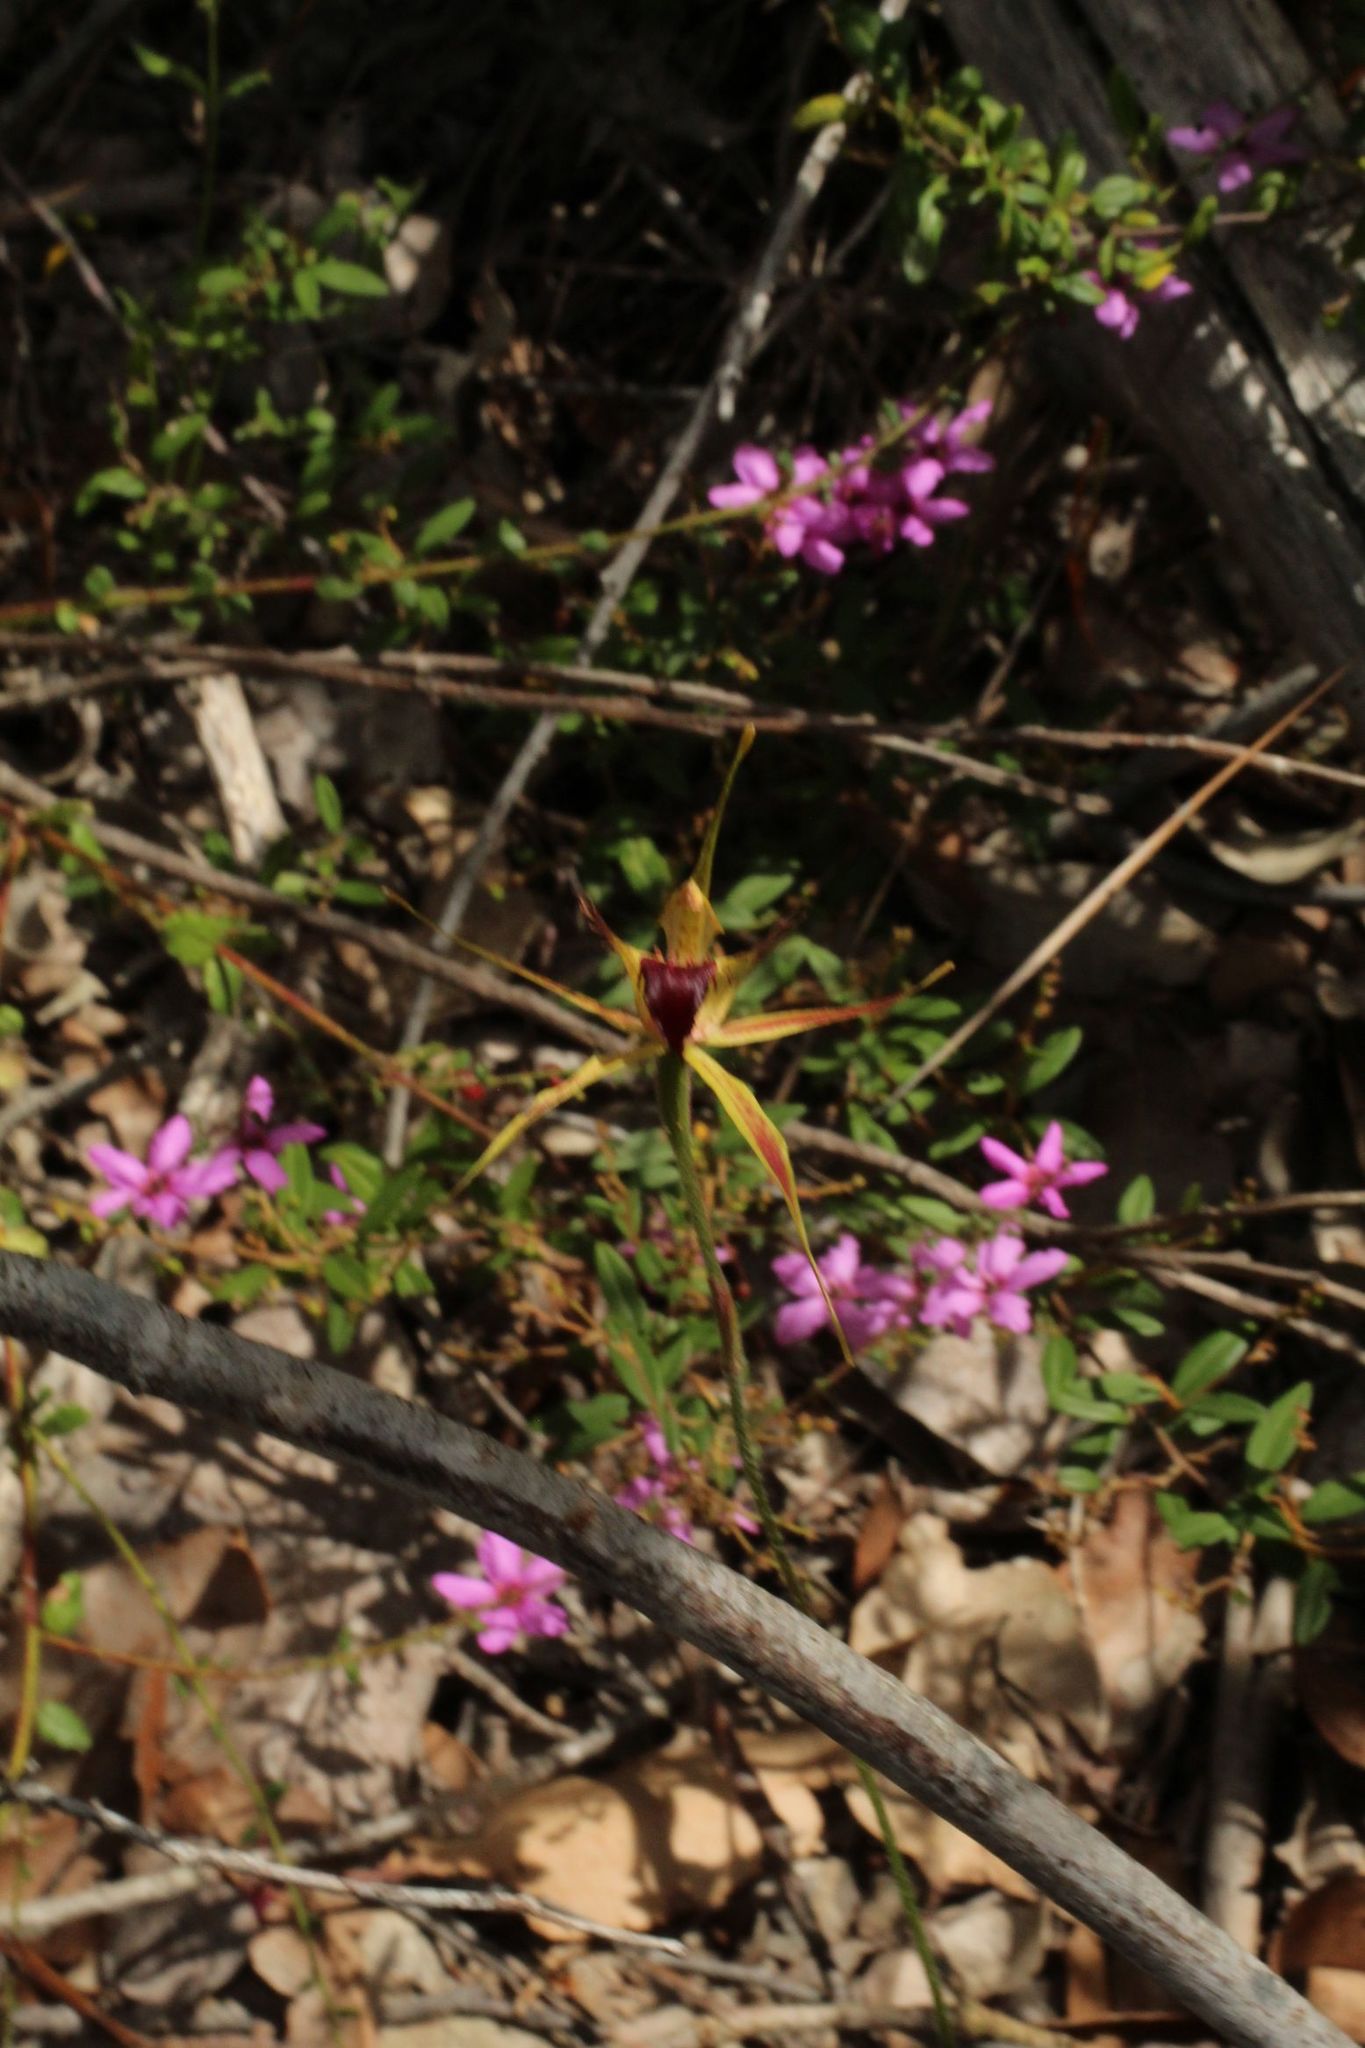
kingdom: Plantae
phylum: Tracheophyta
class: Liliopsida
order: Asparagales
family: Orchidaceae
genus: Caladenia
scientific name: Caladenia brownii
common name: Kari spider orchid
